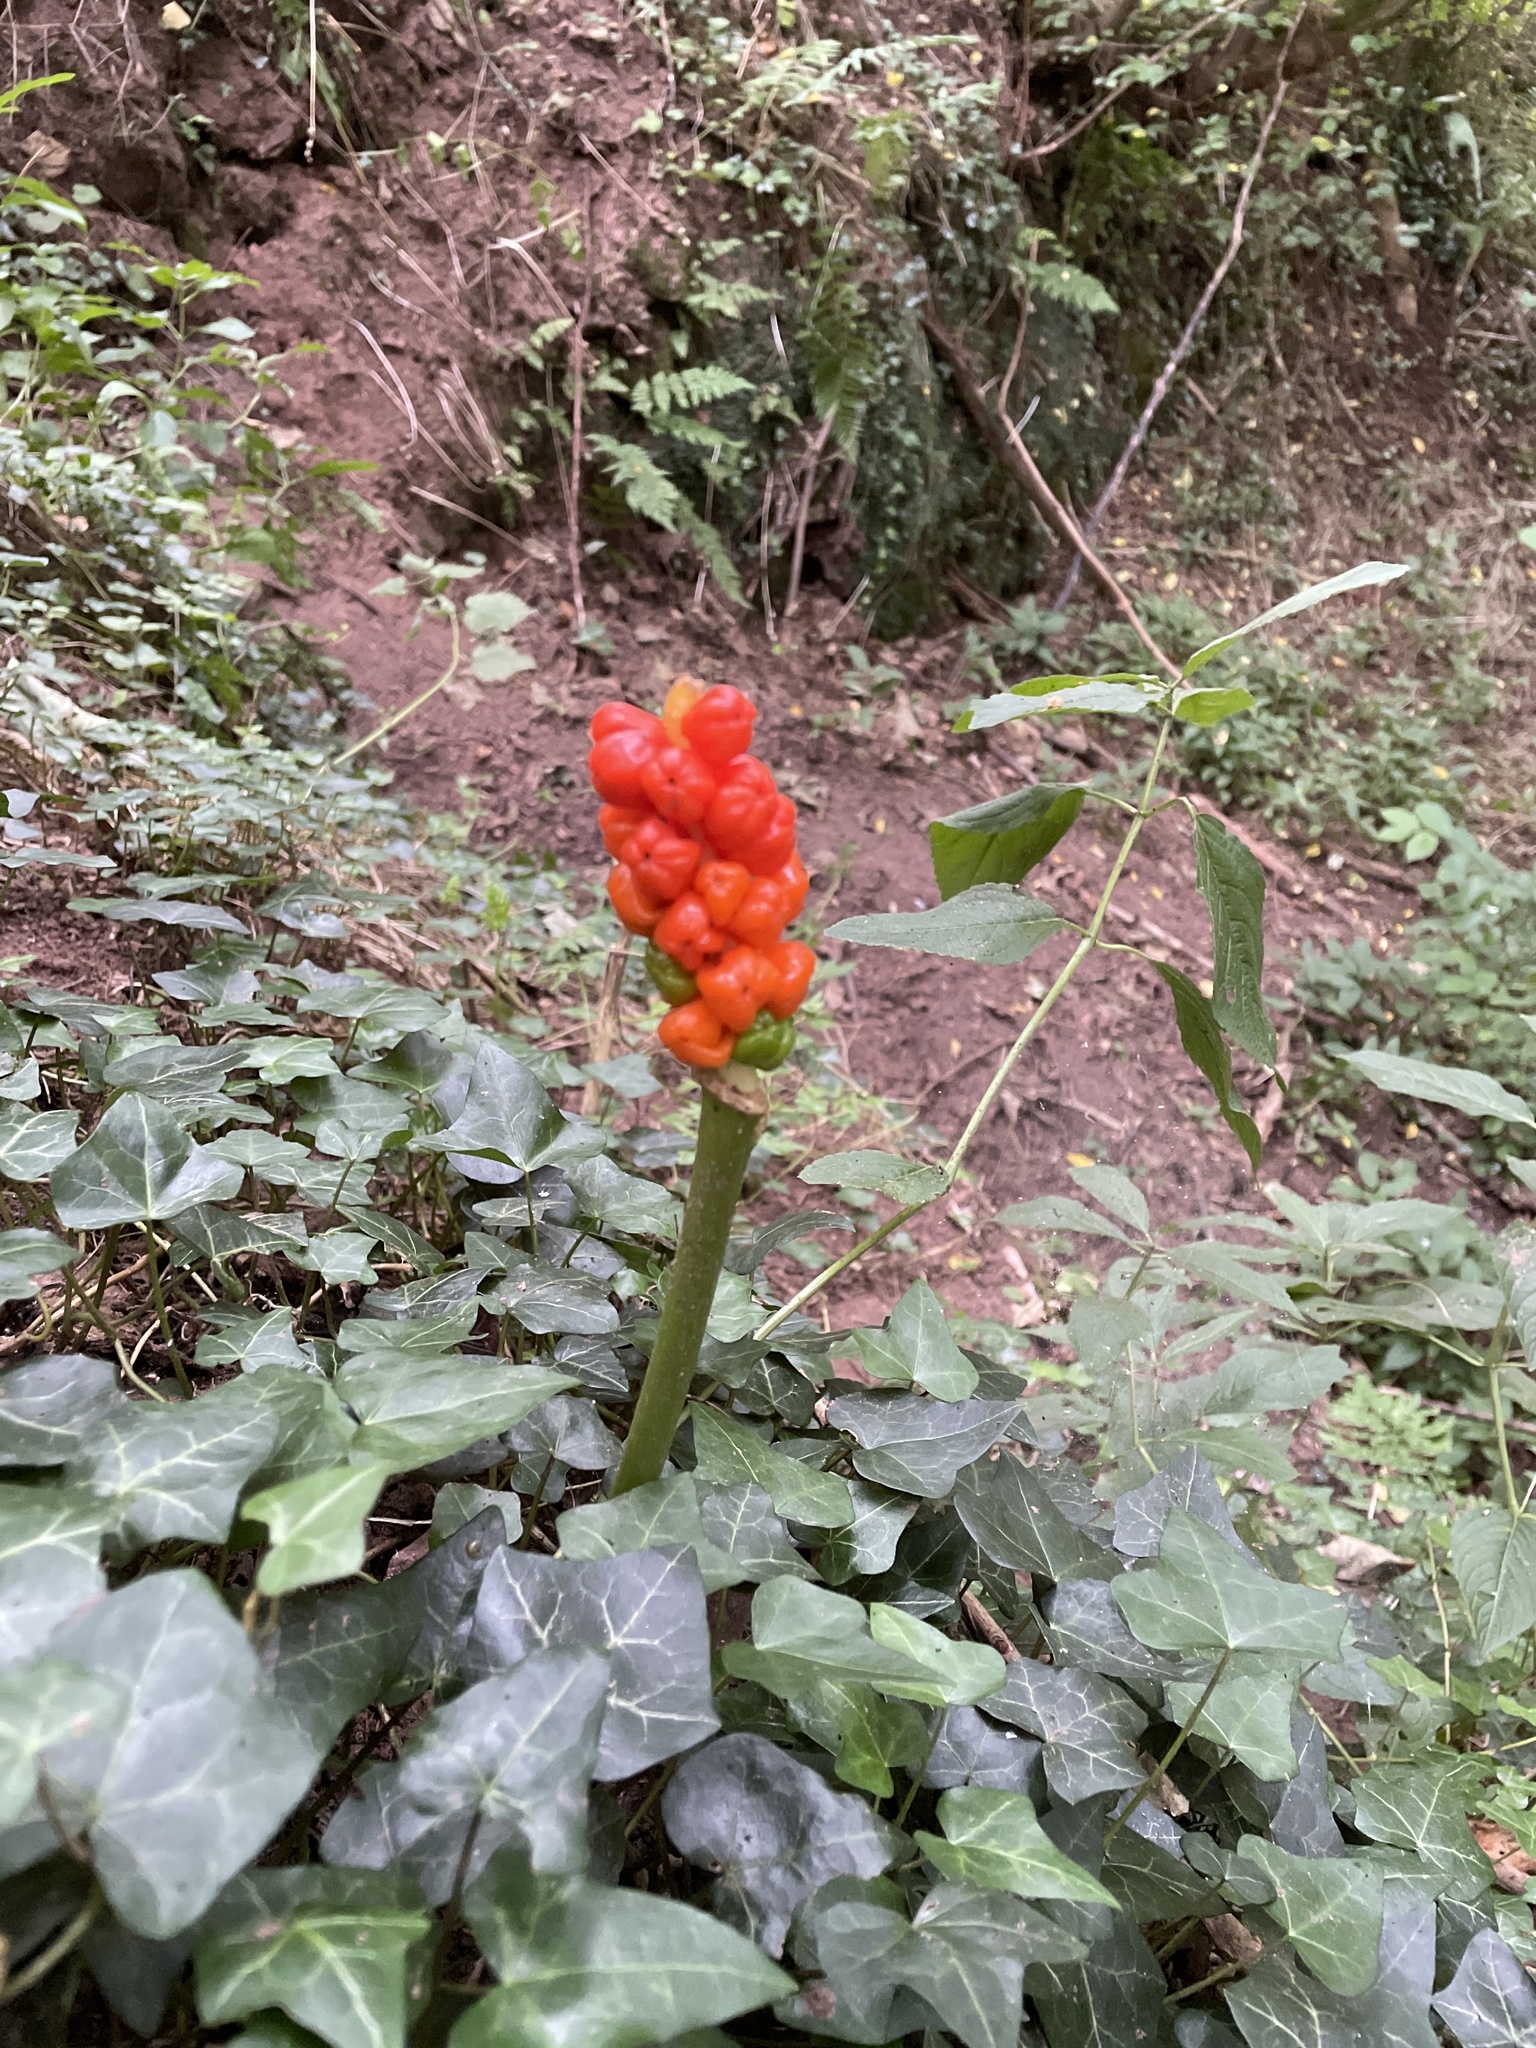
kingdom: Plantae
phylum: Tracheophyta
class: Liliopsida
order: Alismatales
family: Araceae
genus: Arum
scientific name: Arum maculatum
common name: Lords-and-ladies
